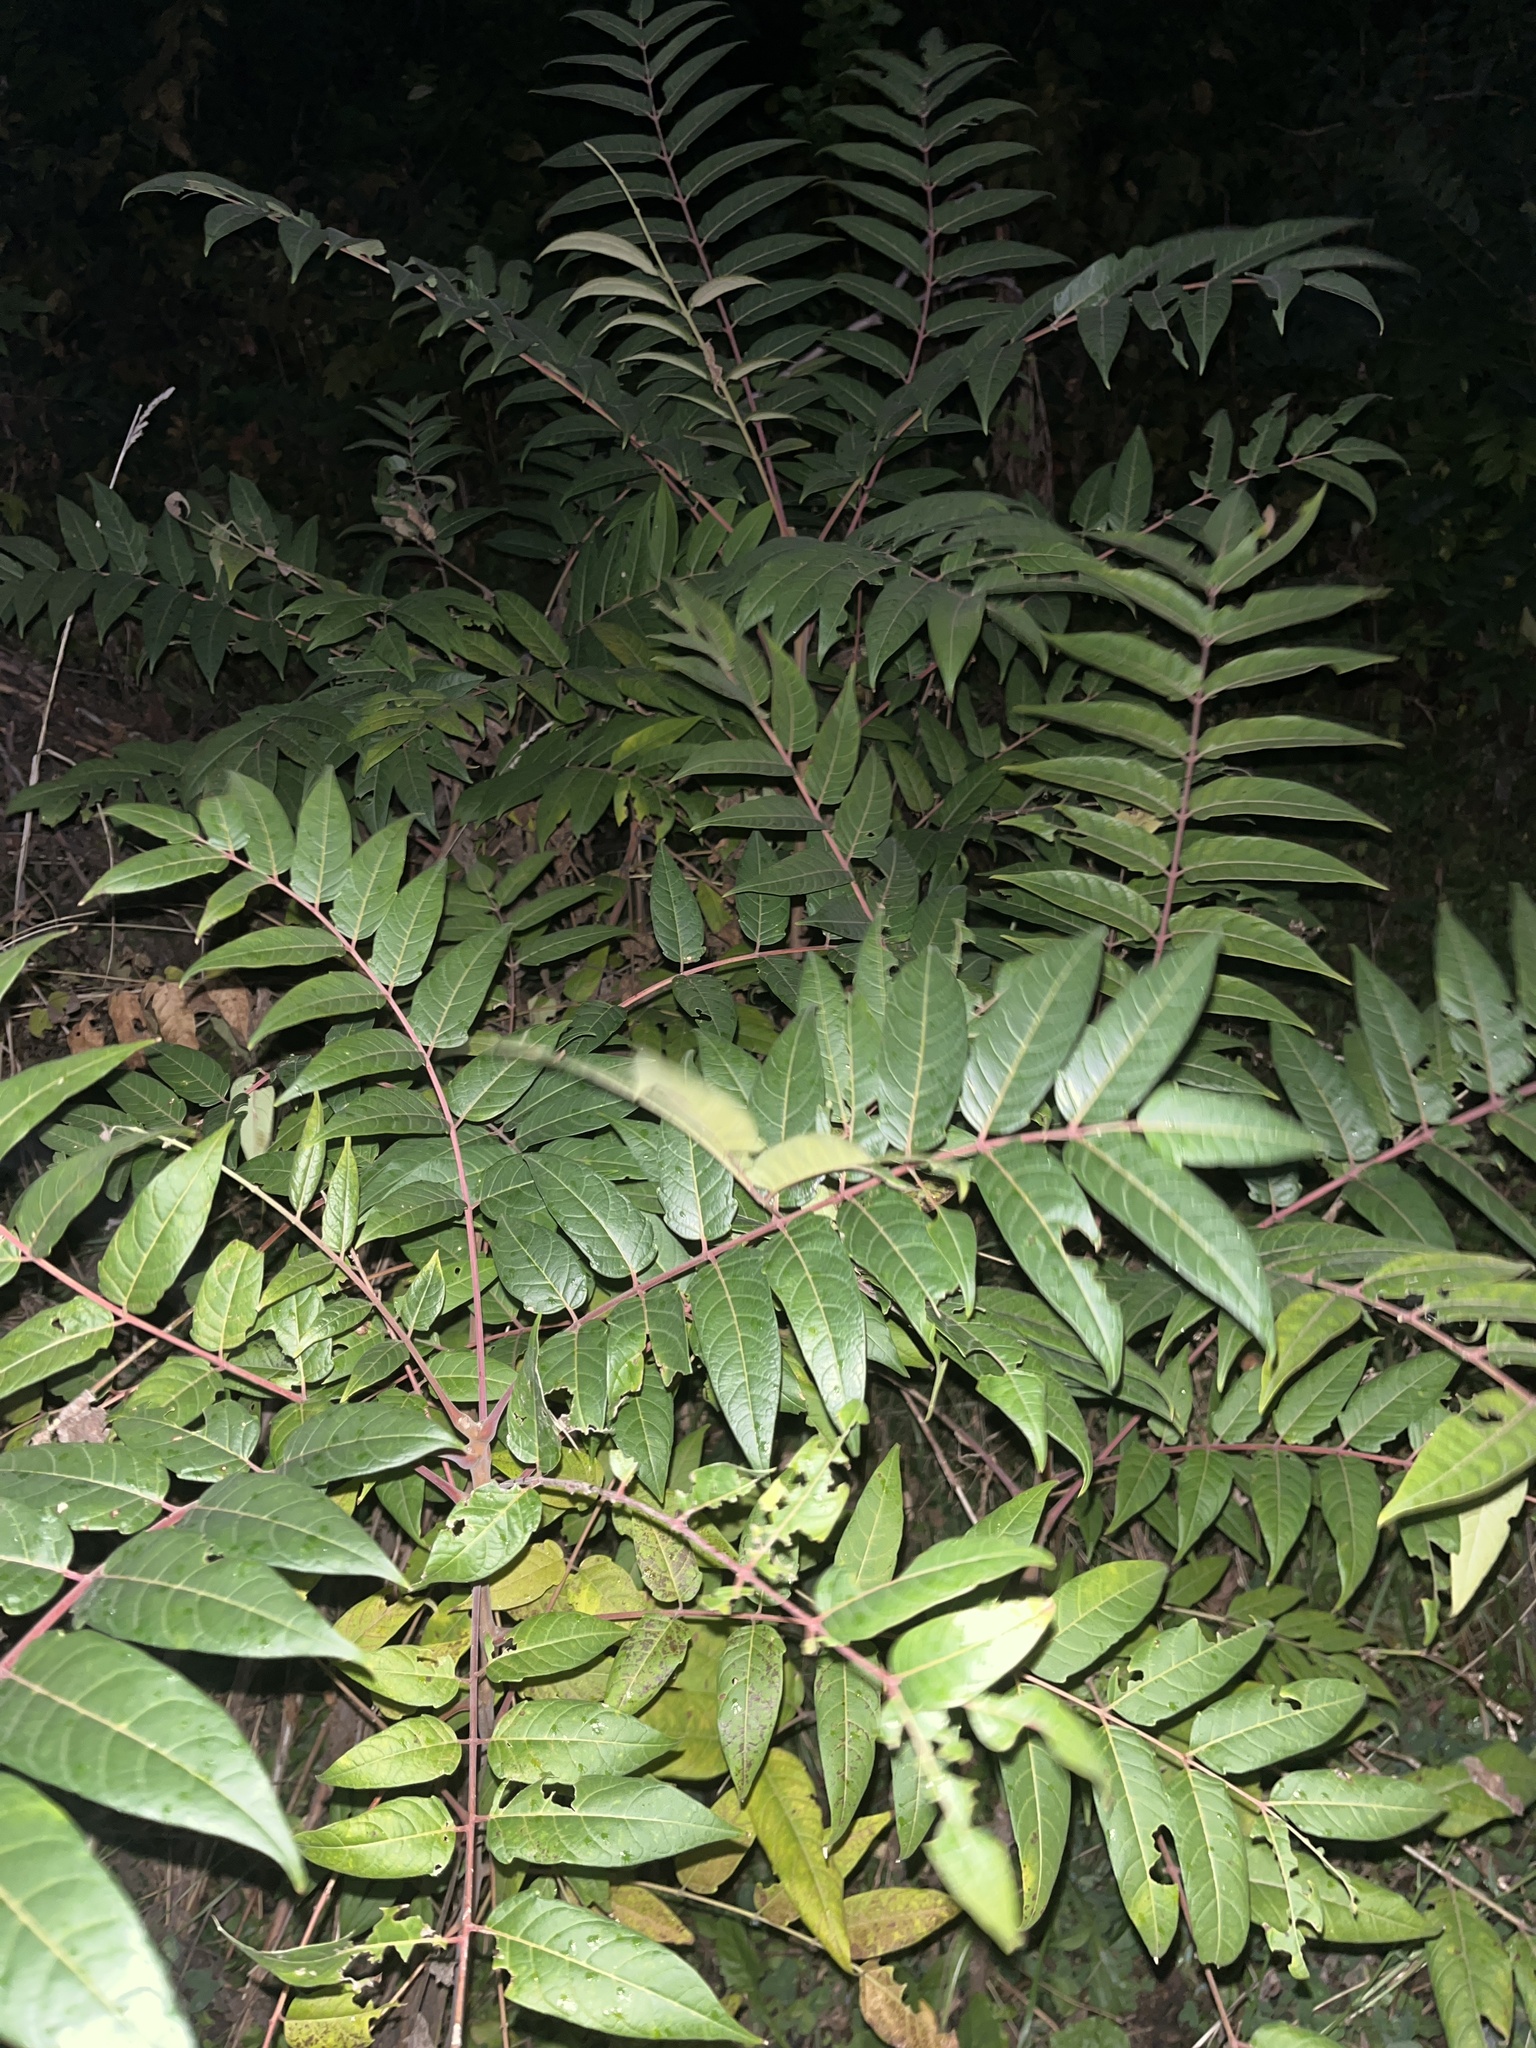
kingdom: Plantae
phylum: Tracheophyta
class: Magnoliopsida
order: Sapindales
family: Anacardiaceae
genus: Rhus
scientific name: Rhus glabra
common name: Scarlet sumac
